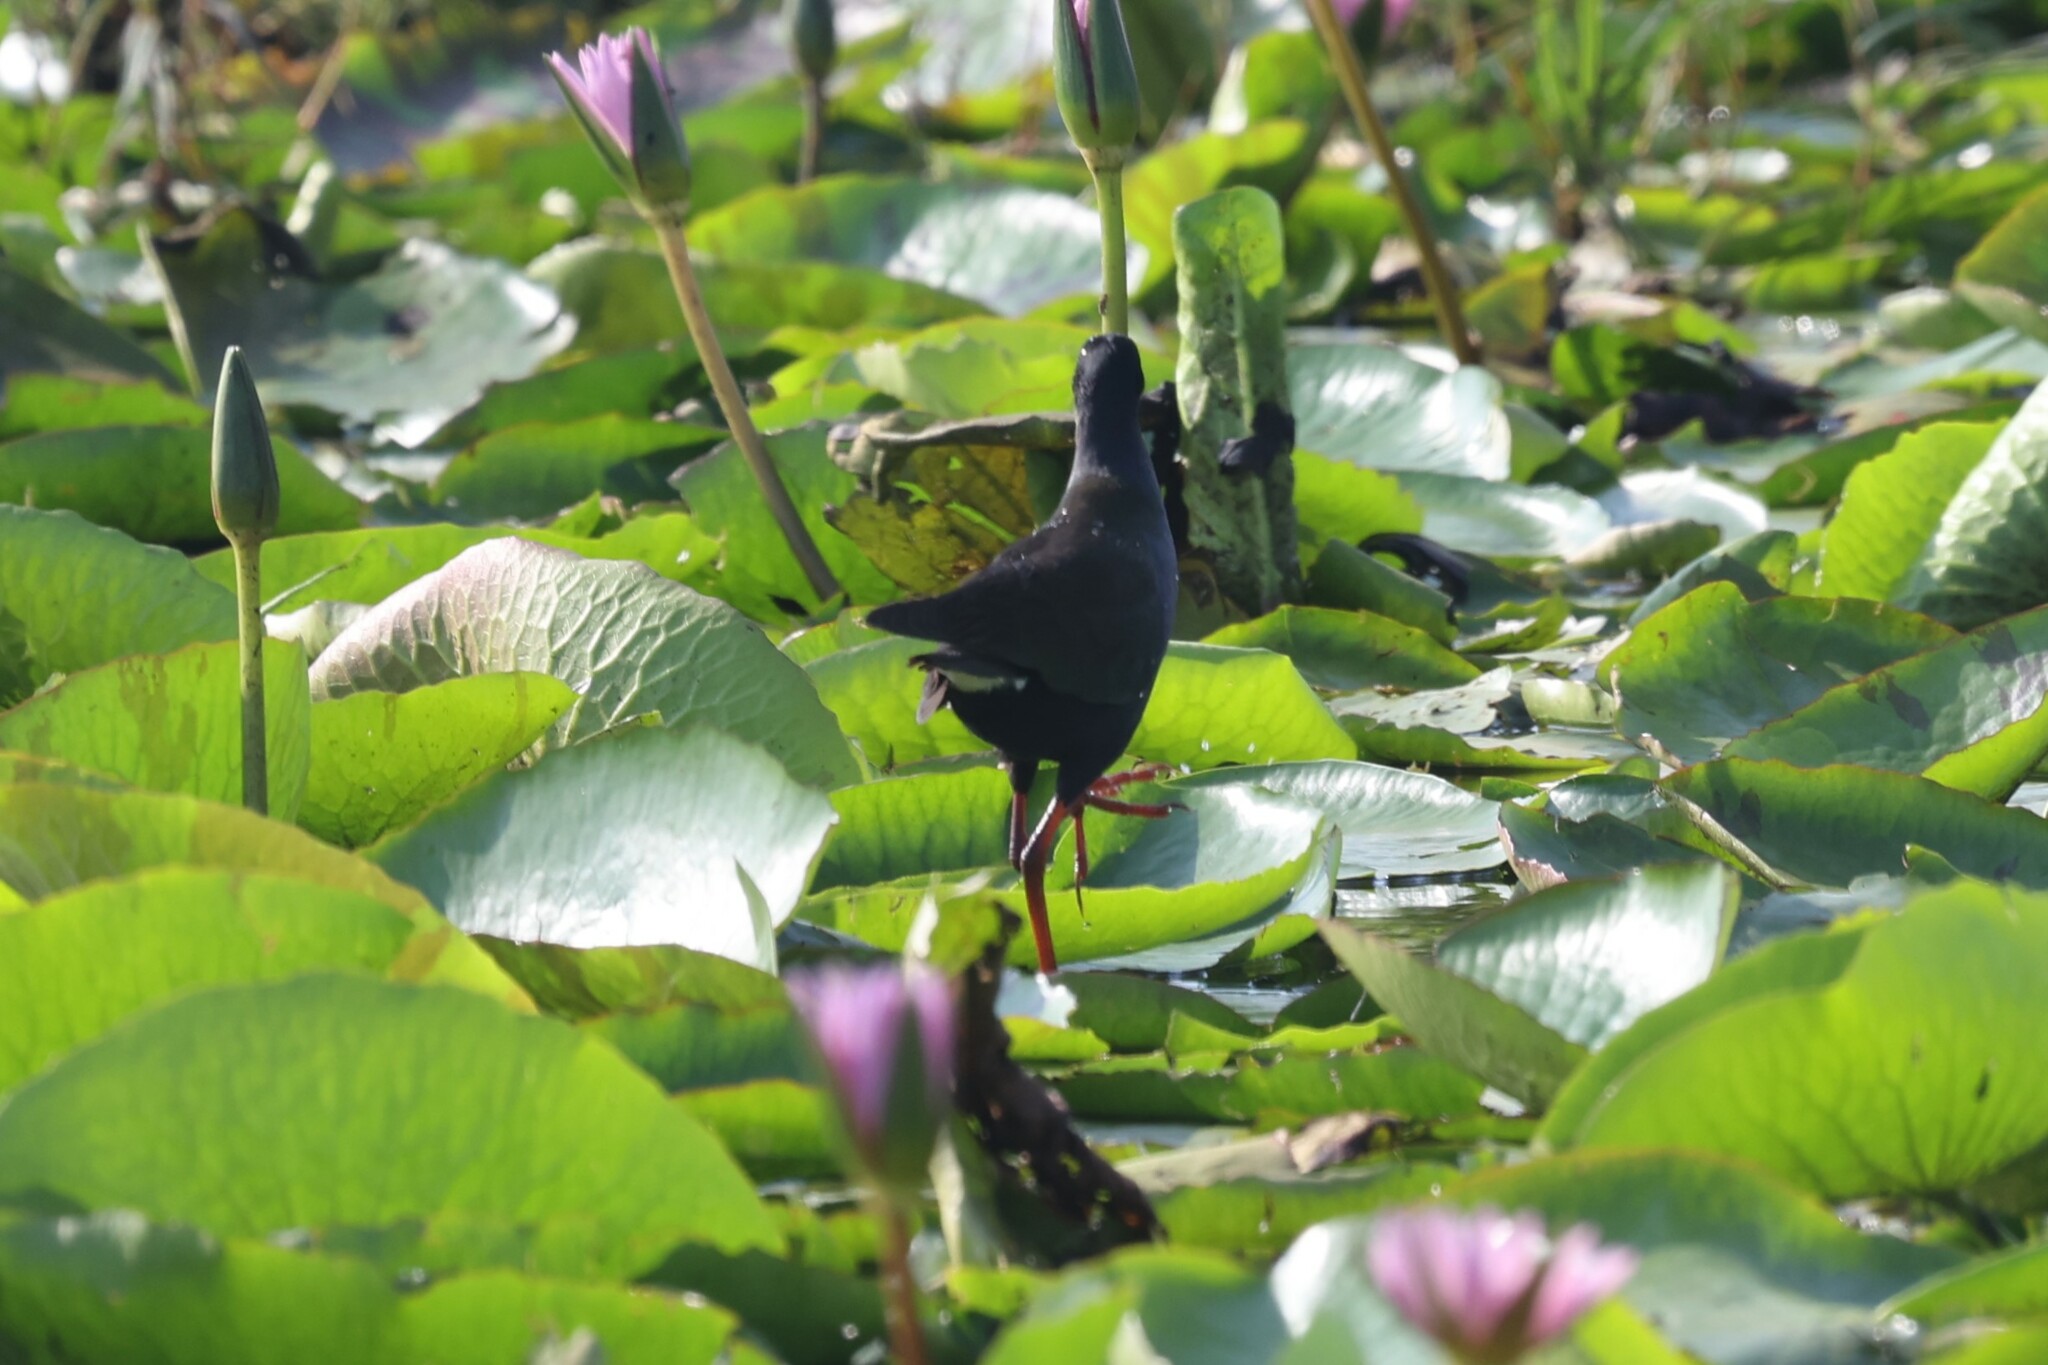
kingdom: Animalia
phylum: Chordata
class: Aves
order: Gruiformes
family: Rallidae
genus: Porphyrio
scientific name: Porphyrio alleni
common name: Allen's gallinule
